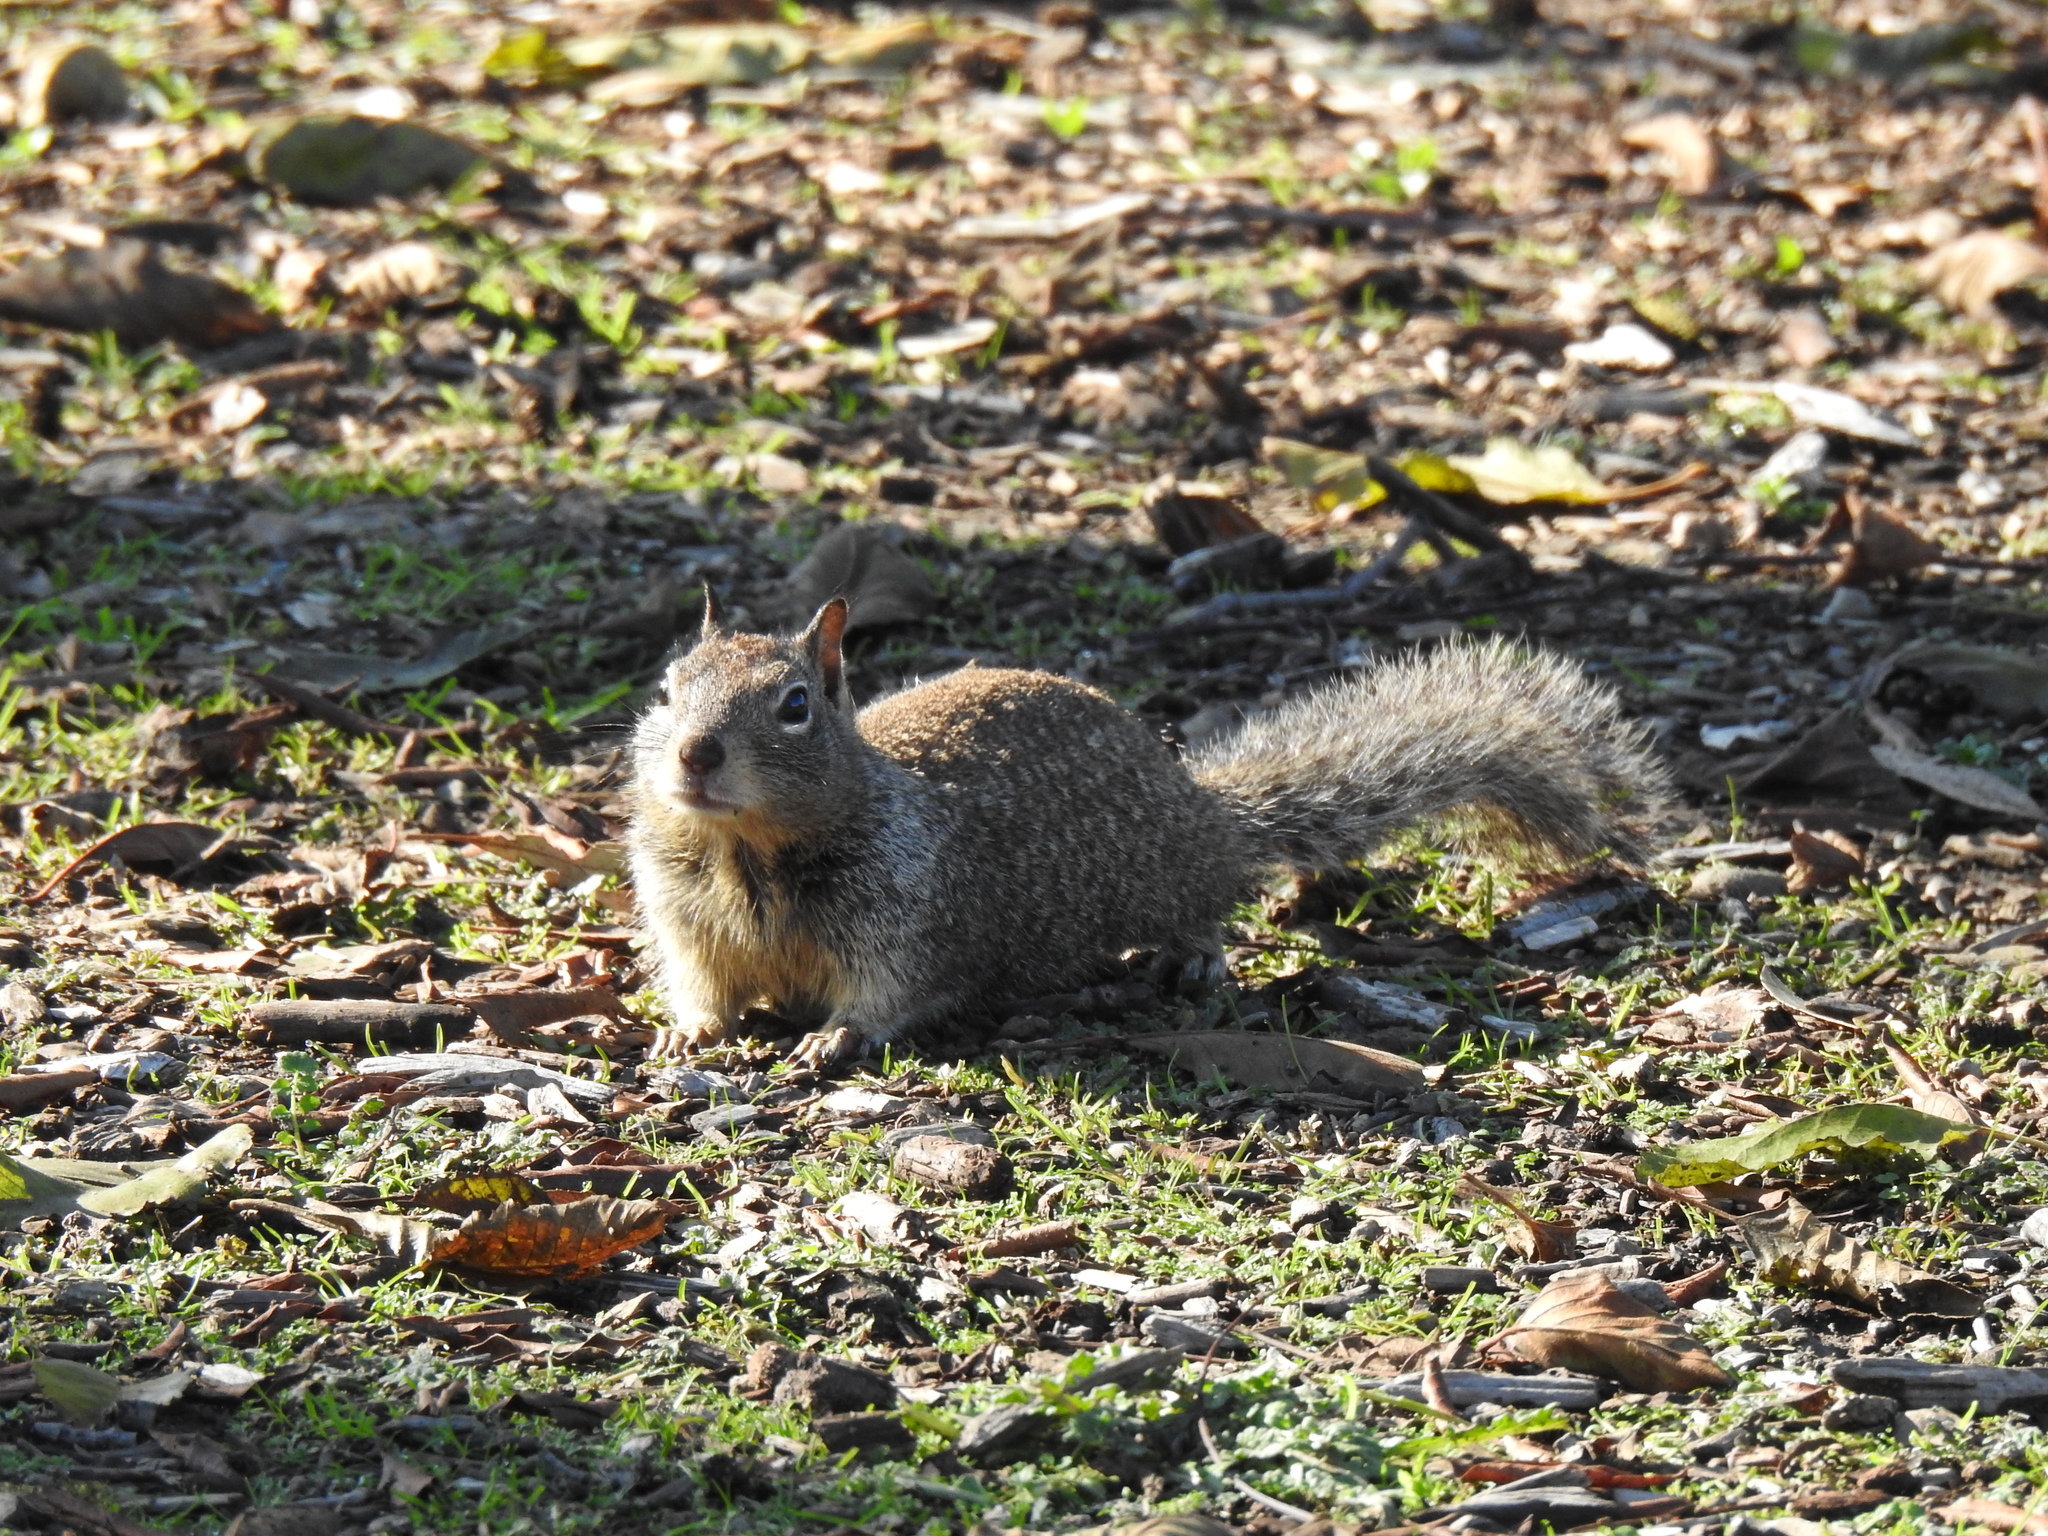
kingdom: Animalia
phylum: Chordata
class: Mammalia
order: Rodentia
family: Sciuridae
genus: Otospermophilus
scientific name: Otospermophilus beecheyi
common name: California ground squirrel
